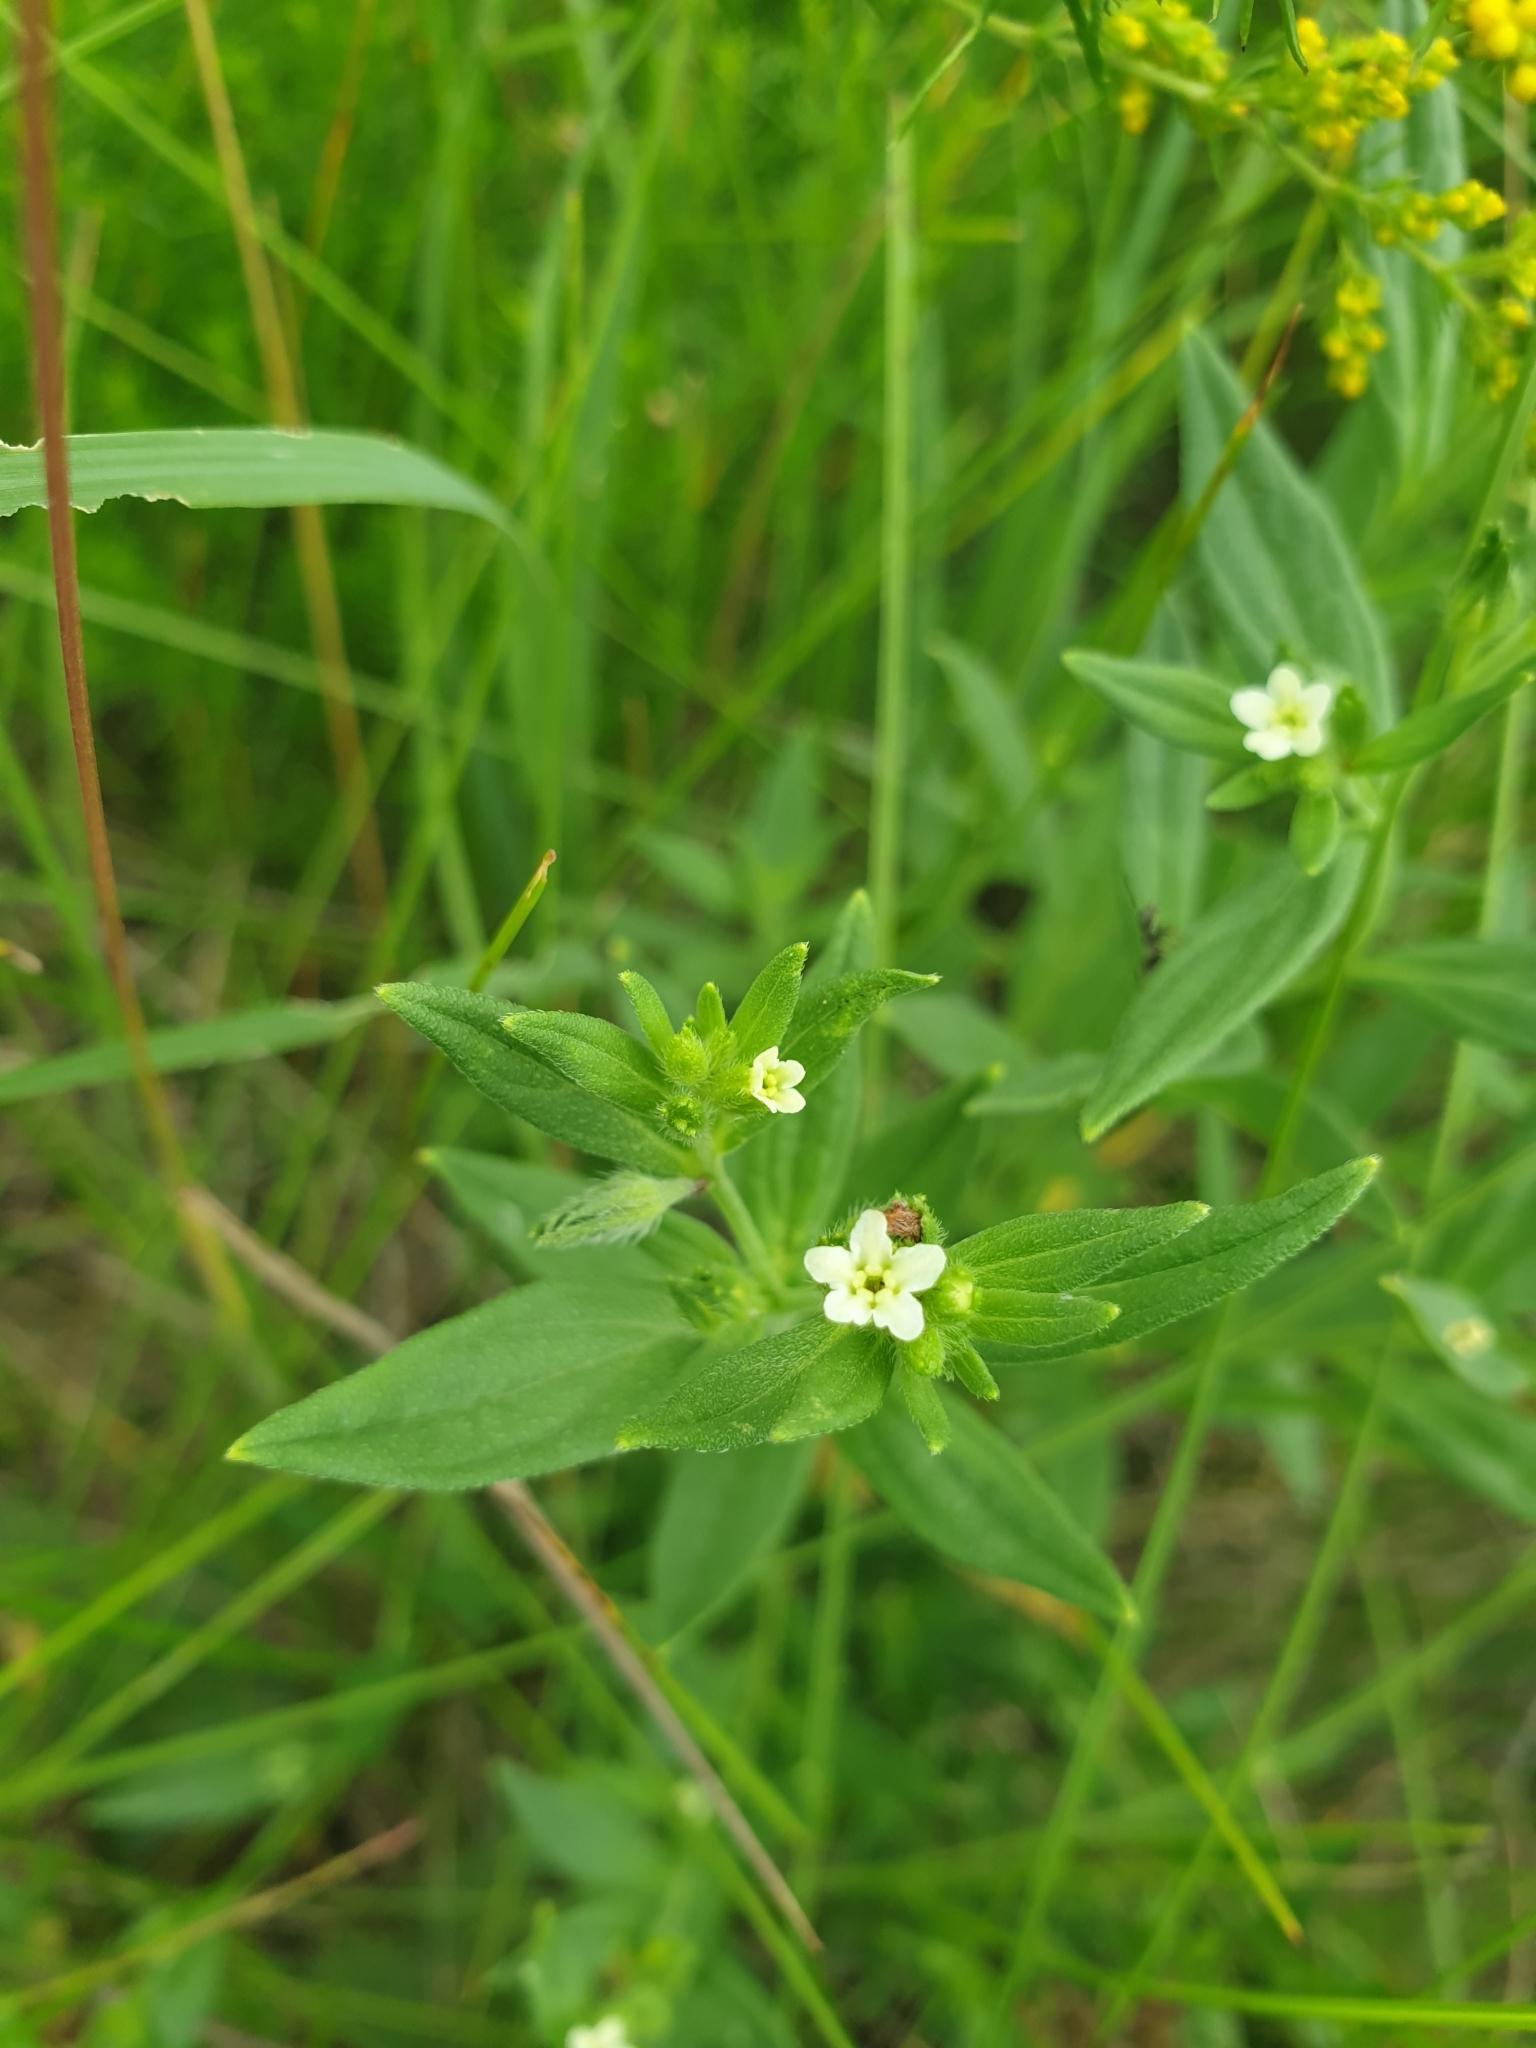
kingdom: Plantae
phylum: Tracheophyta
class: Magnoliopsida
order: Boraginales
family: Boraginaceae
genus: Lithospermum
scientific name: Lithospermum officinale
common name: Common gromwell
